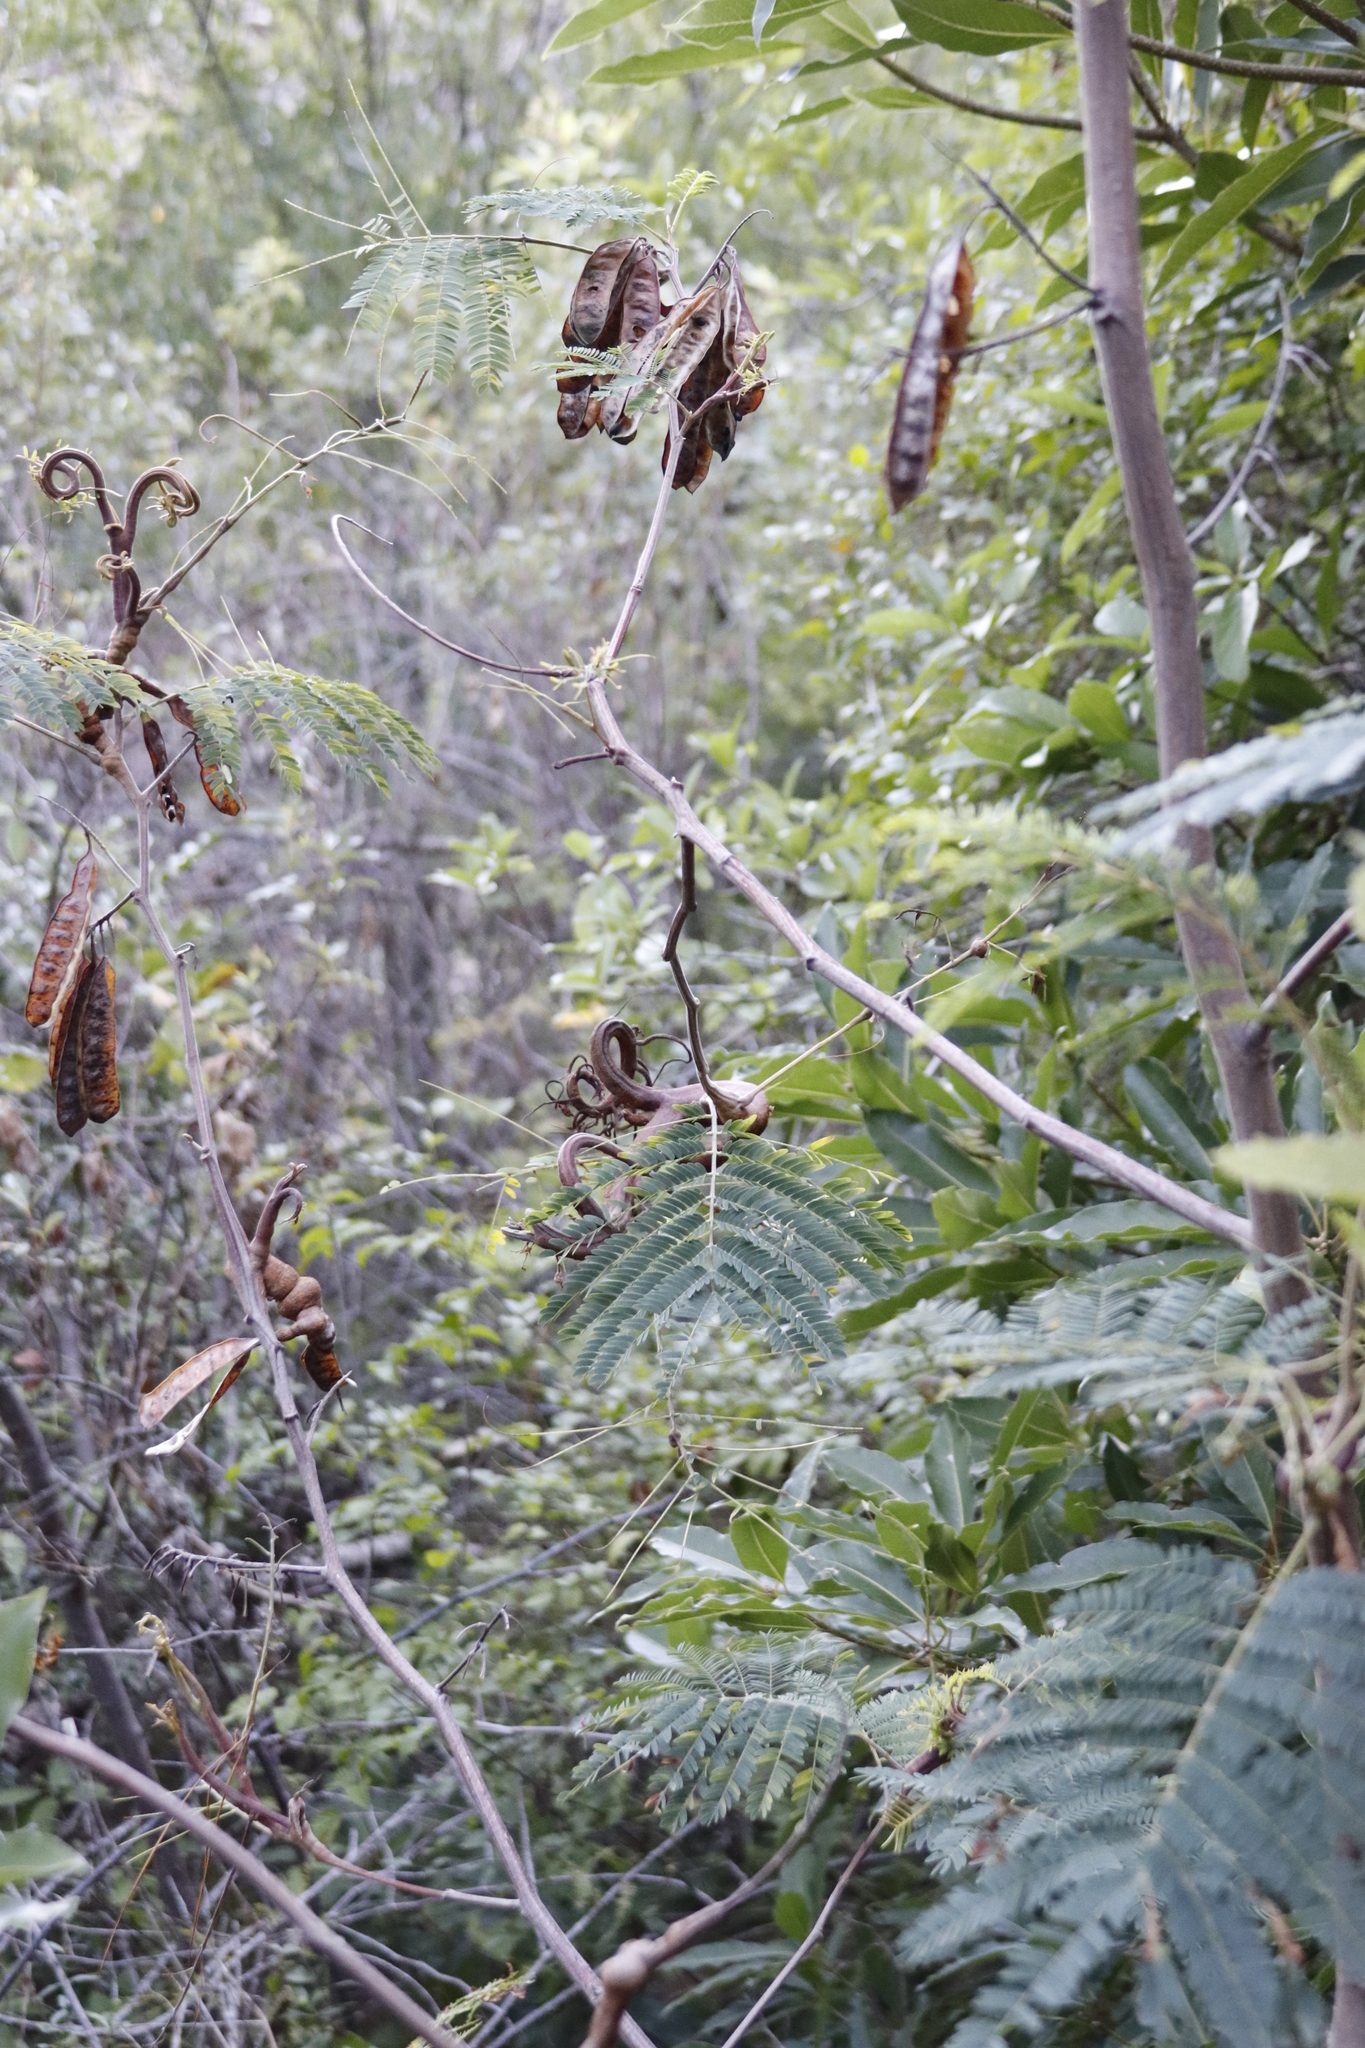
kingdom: Fungi
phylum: Basidiomycota
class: Pucciniomycetes
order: Pucciniales
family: Uromycladiaceae
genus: Uromycladium
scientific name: Uromycladium woodii
